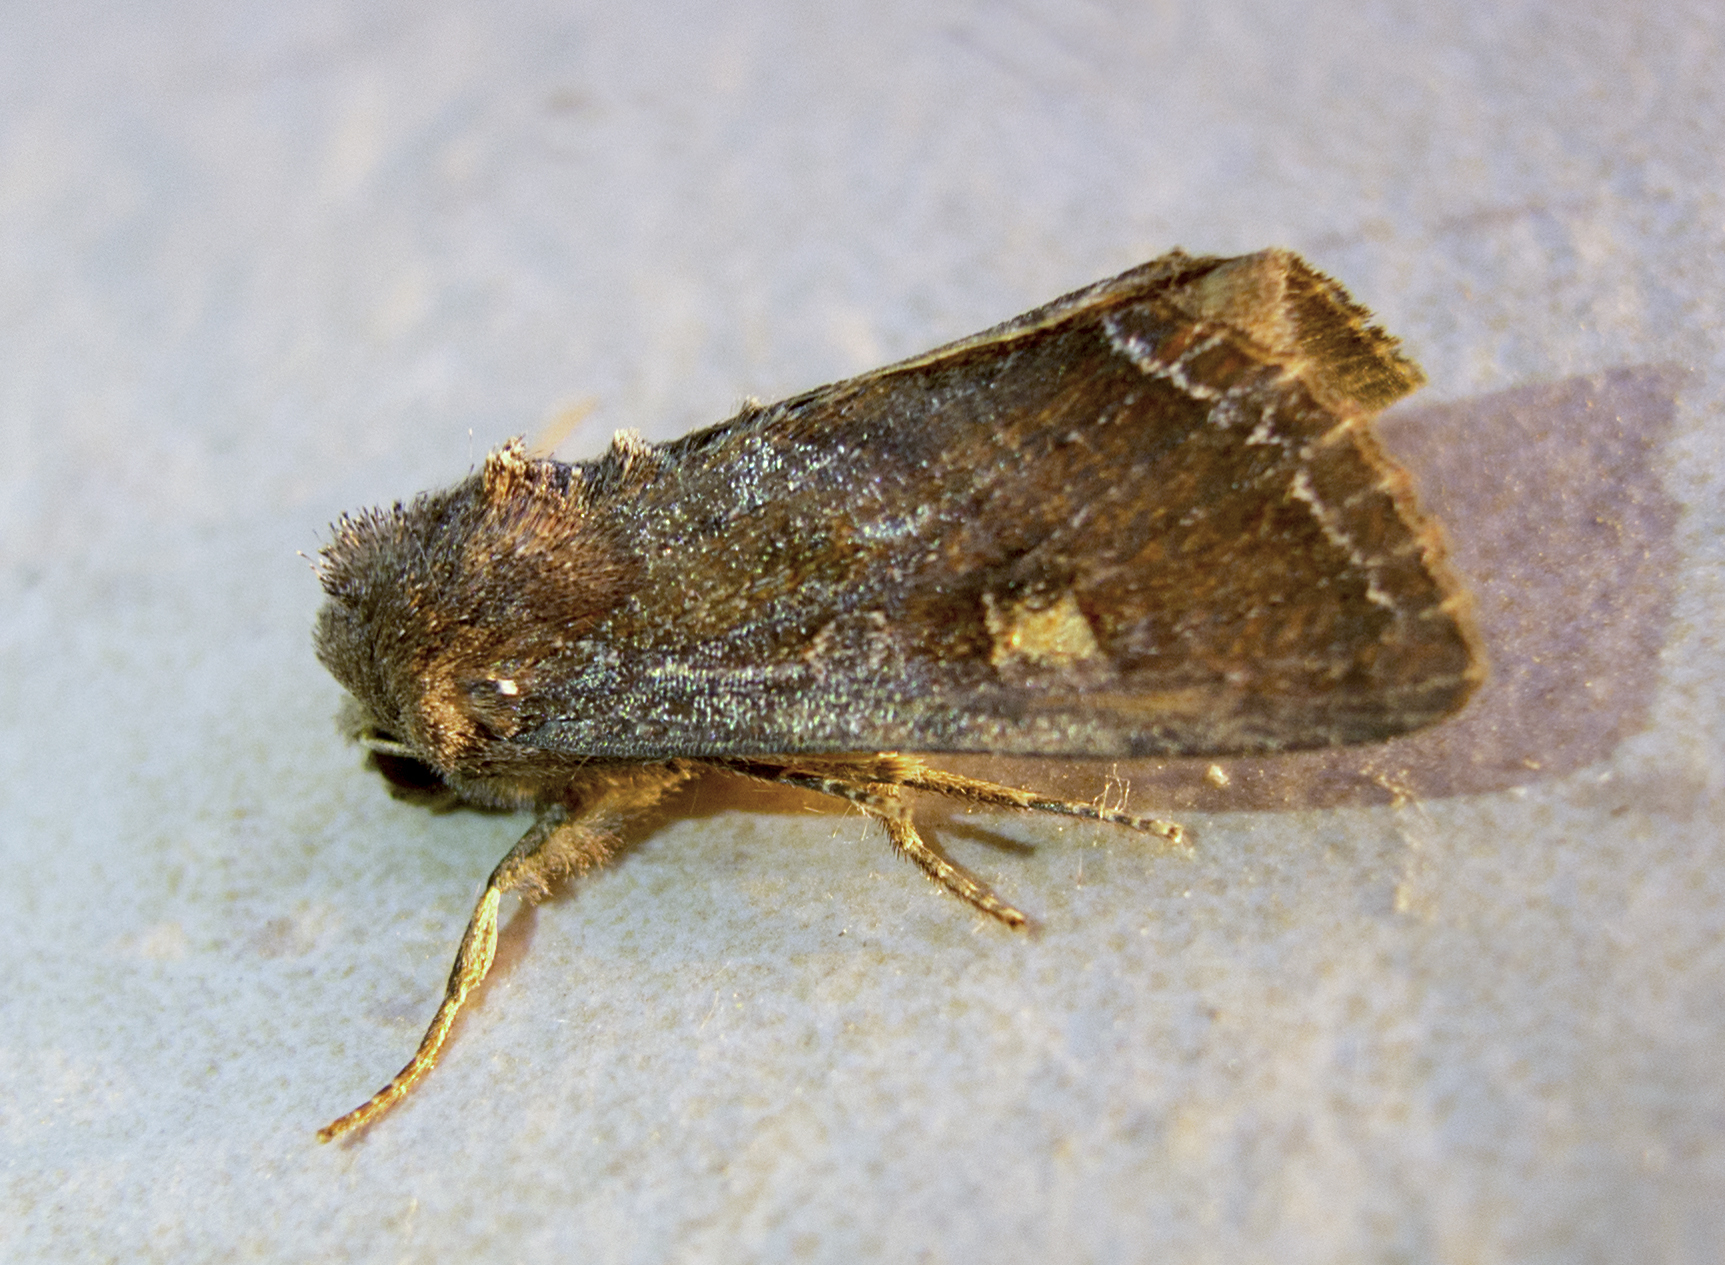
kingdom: Animalia
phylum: Arthropoda
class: Insecta
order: Lepidoptera
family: Noctuidae
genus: Lacanobia
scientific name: Lacanobia oleracea
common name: Bright-line brown-eye
